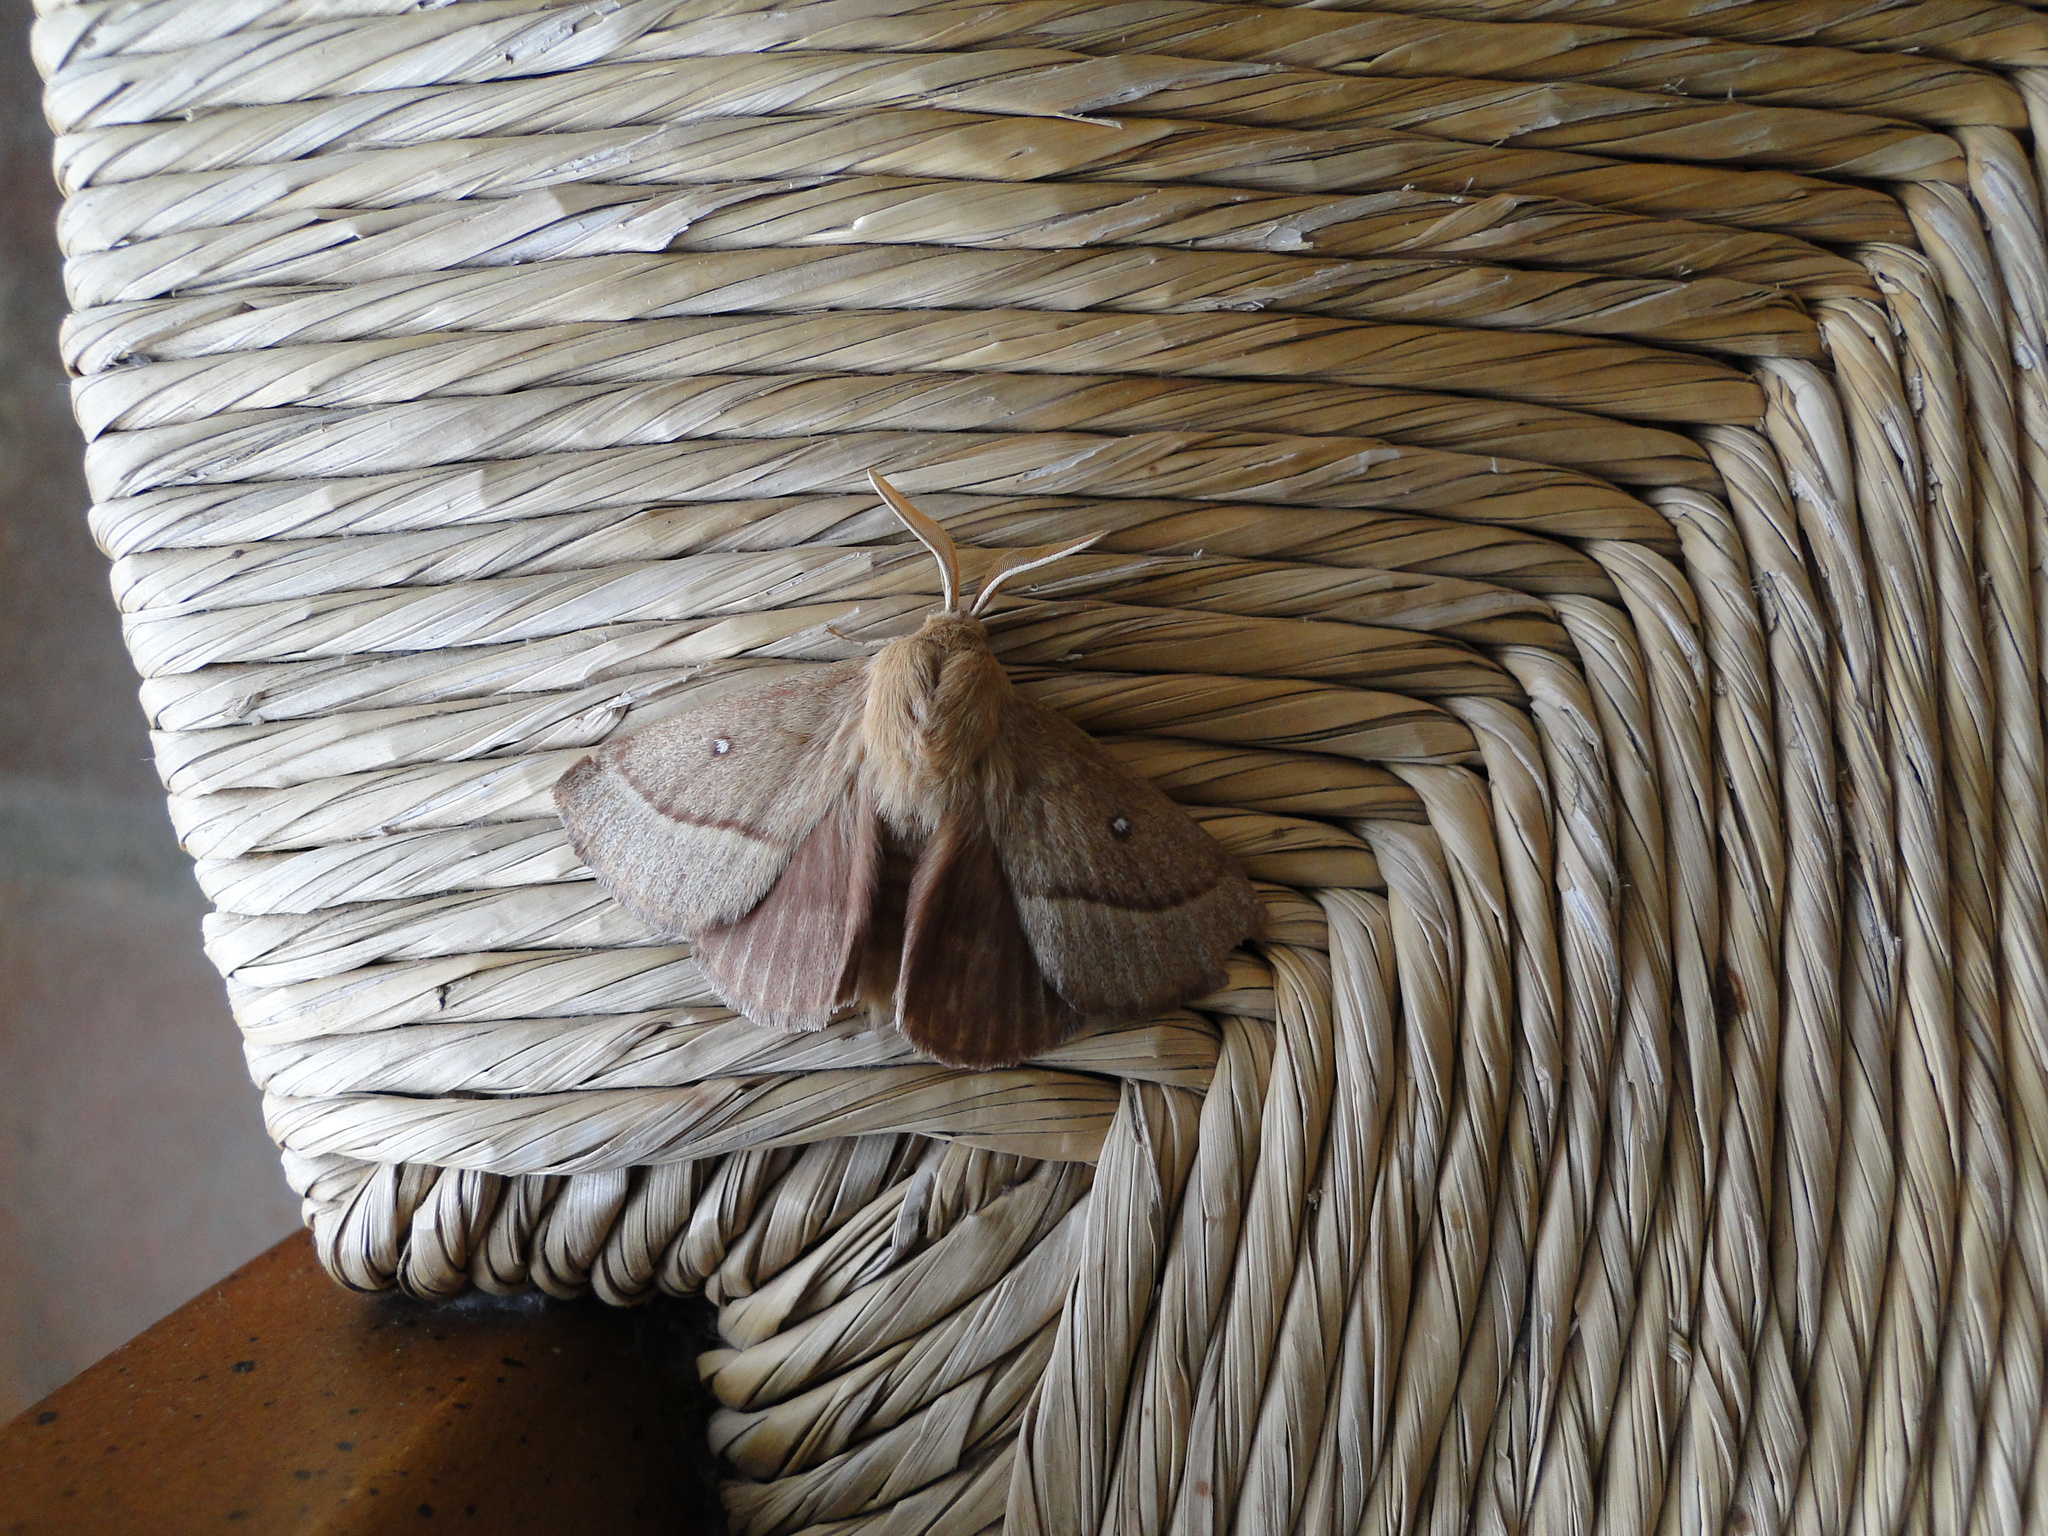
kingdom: Animalia
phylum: Arthropoda
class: Insecta
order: Lepidoptera
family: Lasiocampidae
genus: Lasiocampa
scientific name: Lasiocampa trifolii
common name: Grass eggar
